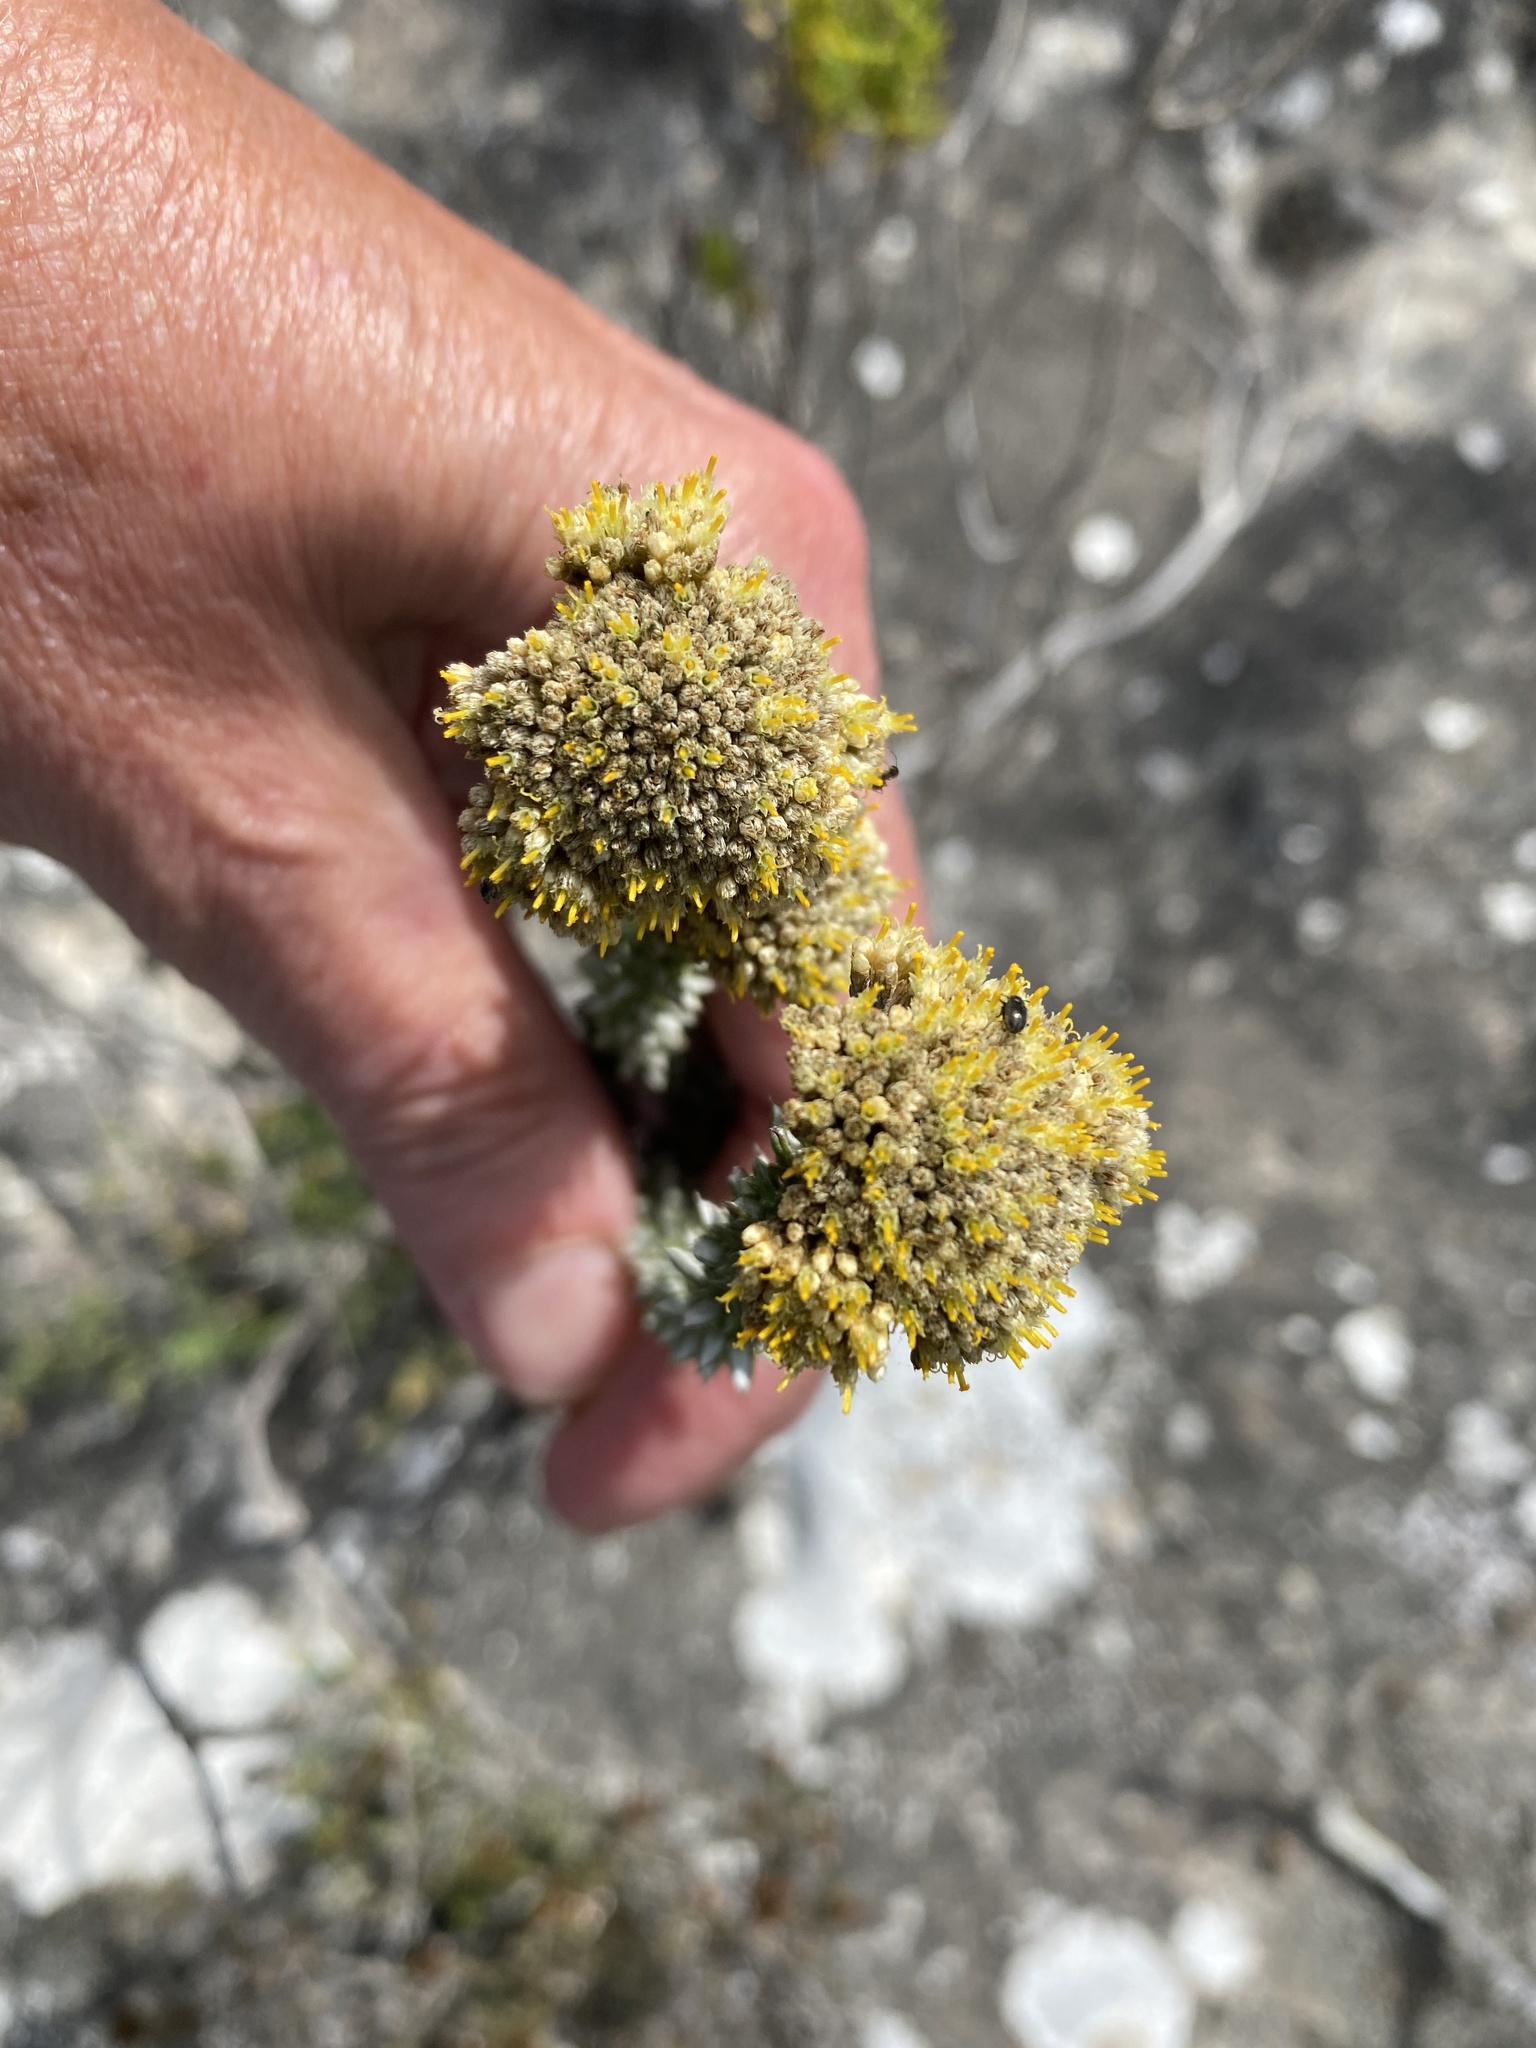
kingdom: Plantae
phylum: Tracheophyta
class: Magnoliopsida
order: Asterales
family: Asteraceae
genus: Metalasia
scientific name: Metalasia pungens
